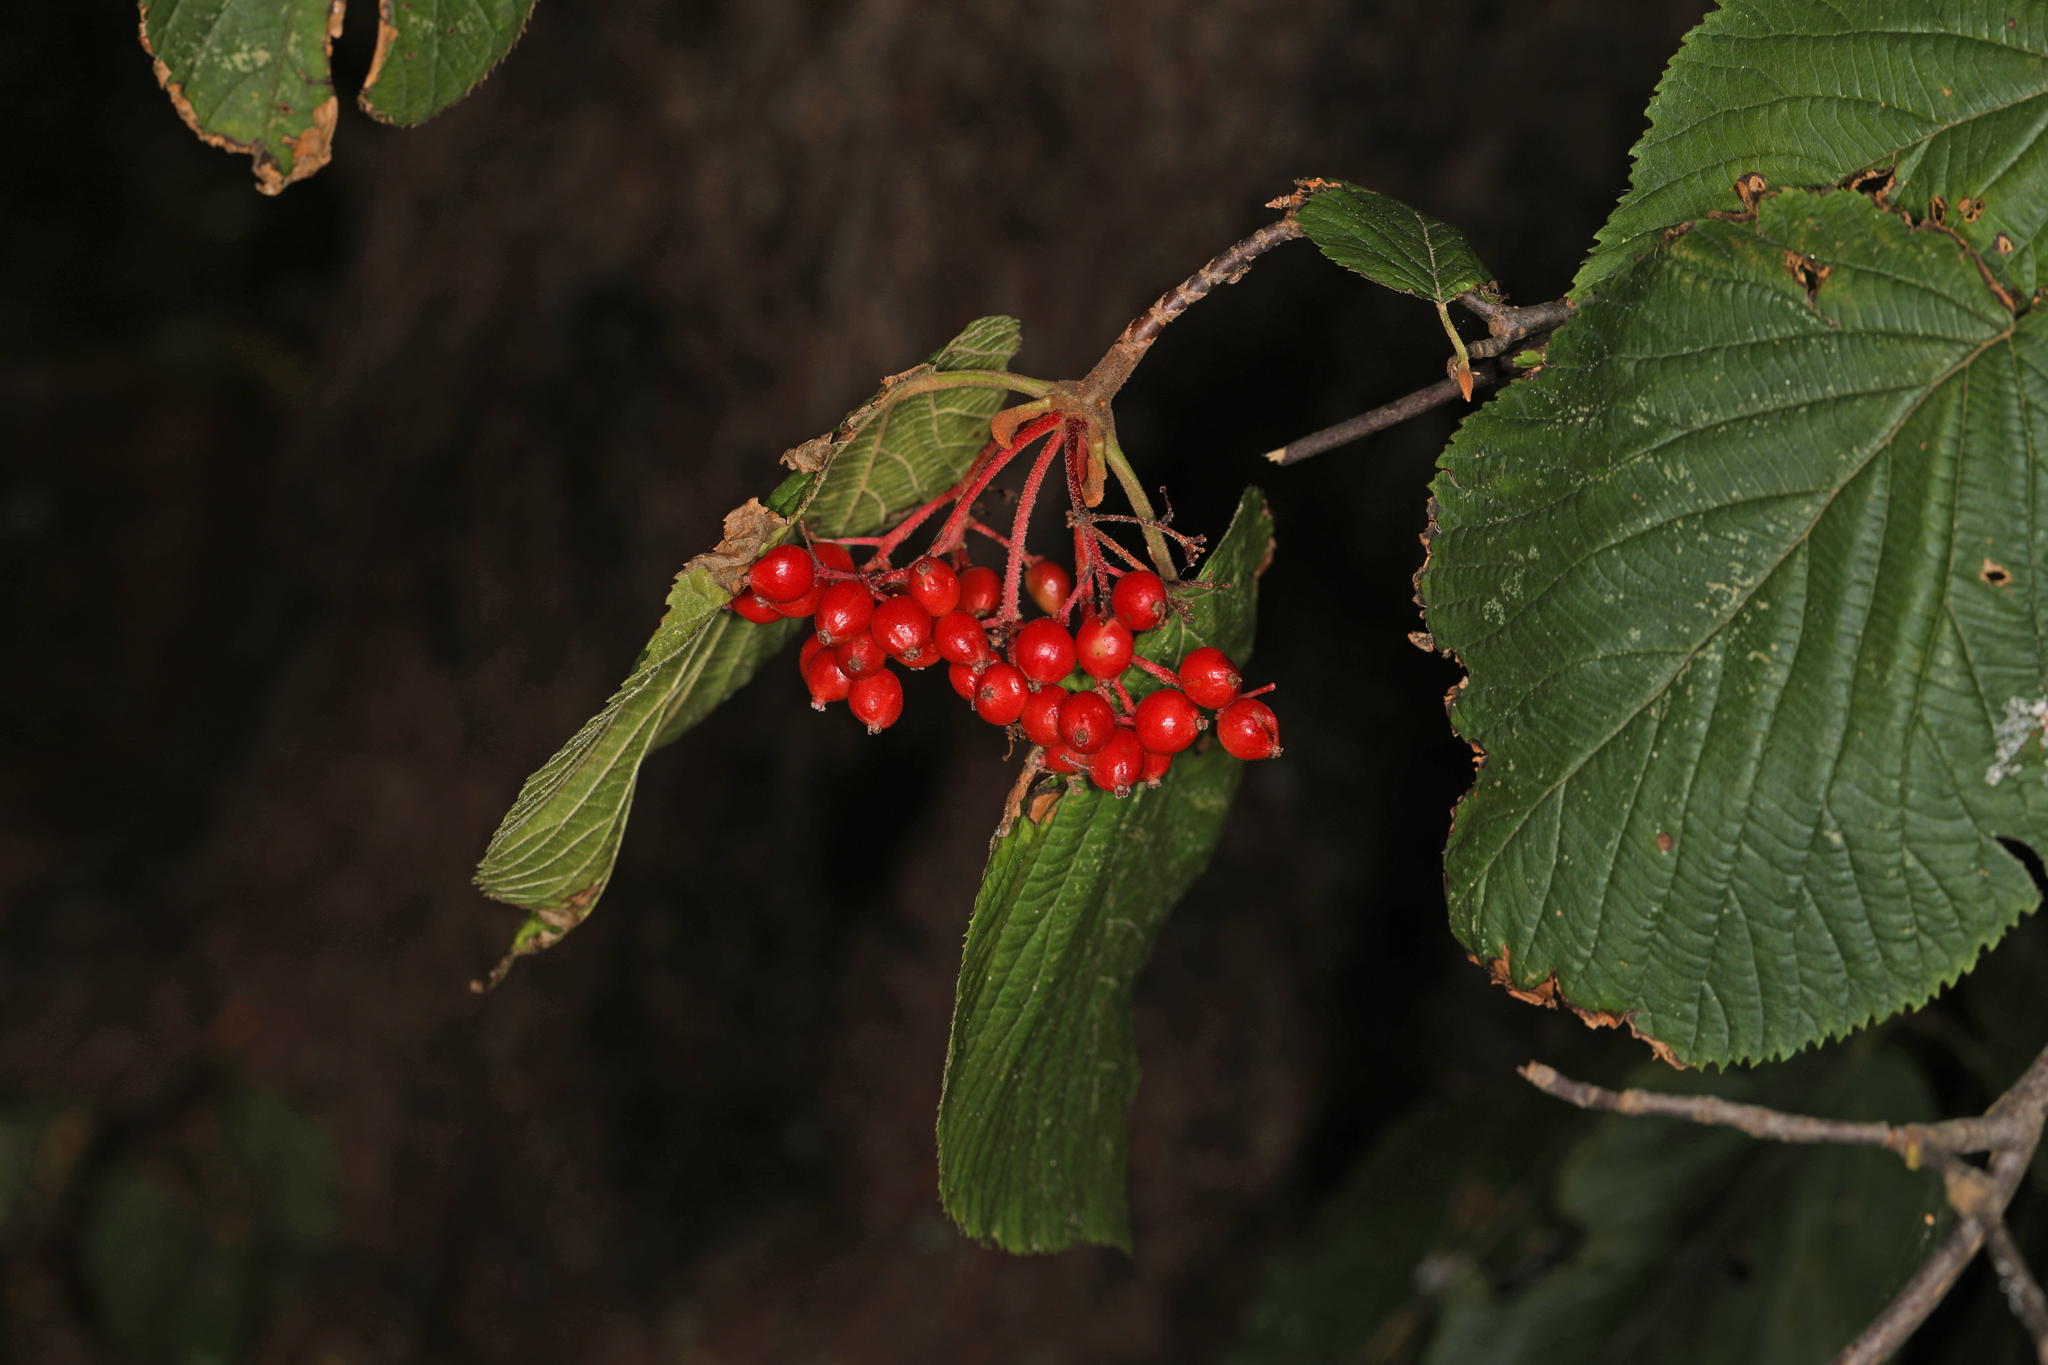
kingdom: Plantae
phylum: Tracheophyta
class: Magnoliopsida
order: Dipsacales
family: Viburnaceae
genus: Viburnum
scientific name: Viburnum lantanoides
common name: Hobblebush
